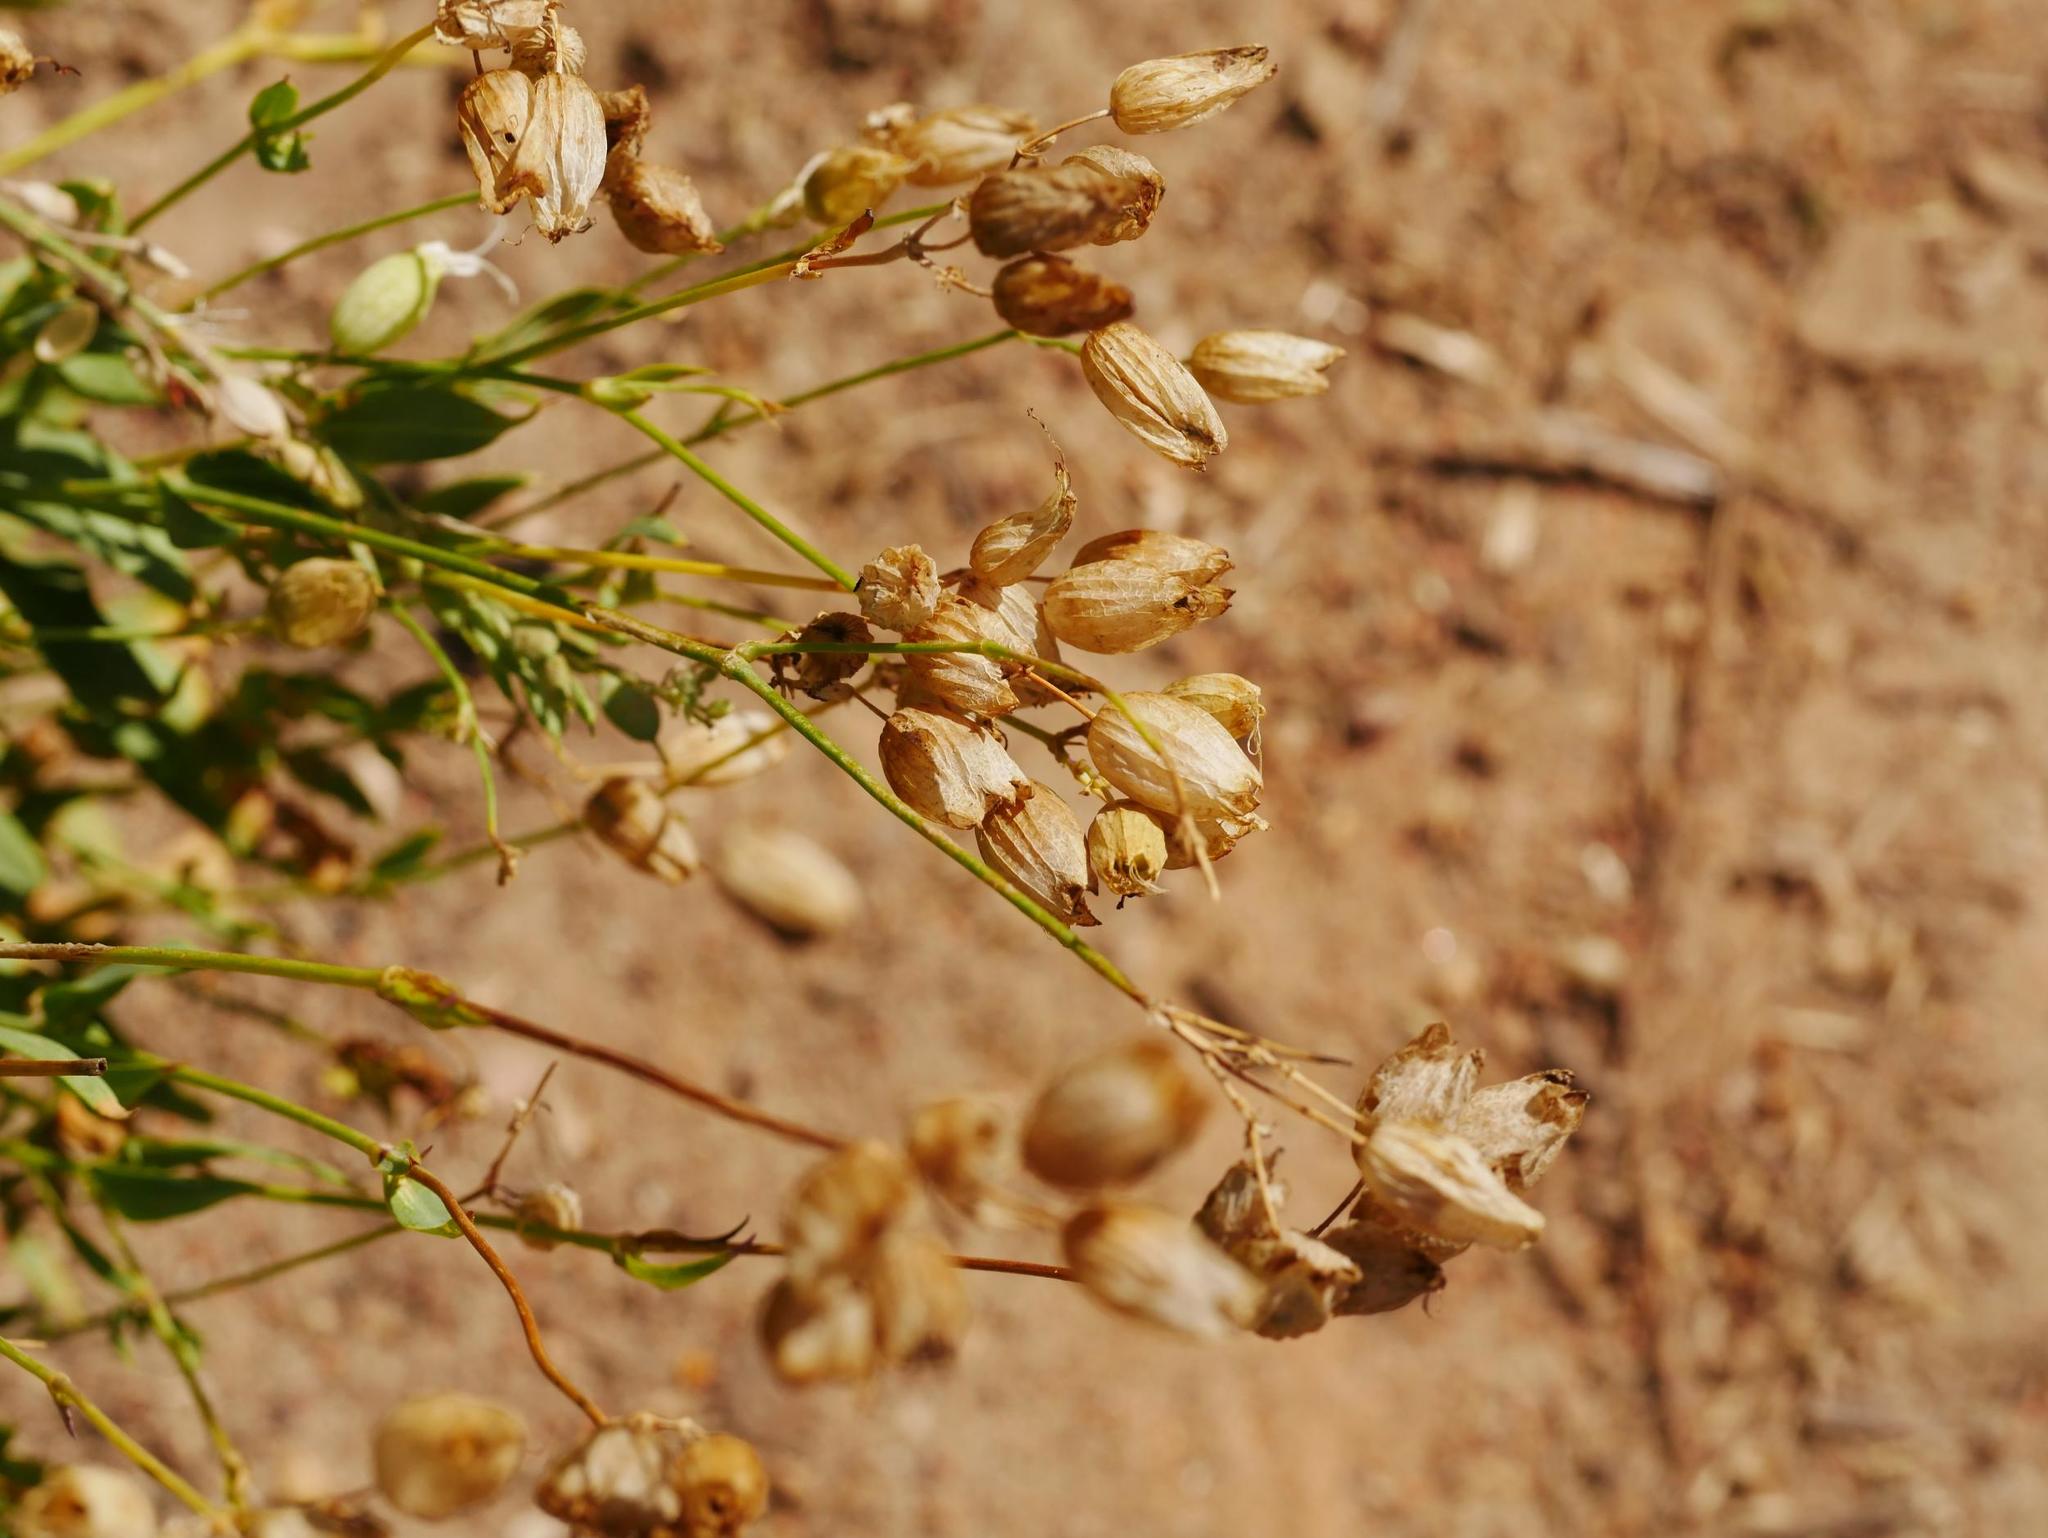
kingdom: Plantae
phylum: Tracheophyta
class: Magnoliopsida
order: Caryophyllales
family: Caryophyllaceae
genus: Silene
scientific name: Silene vulgaris
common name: Bladder campion
